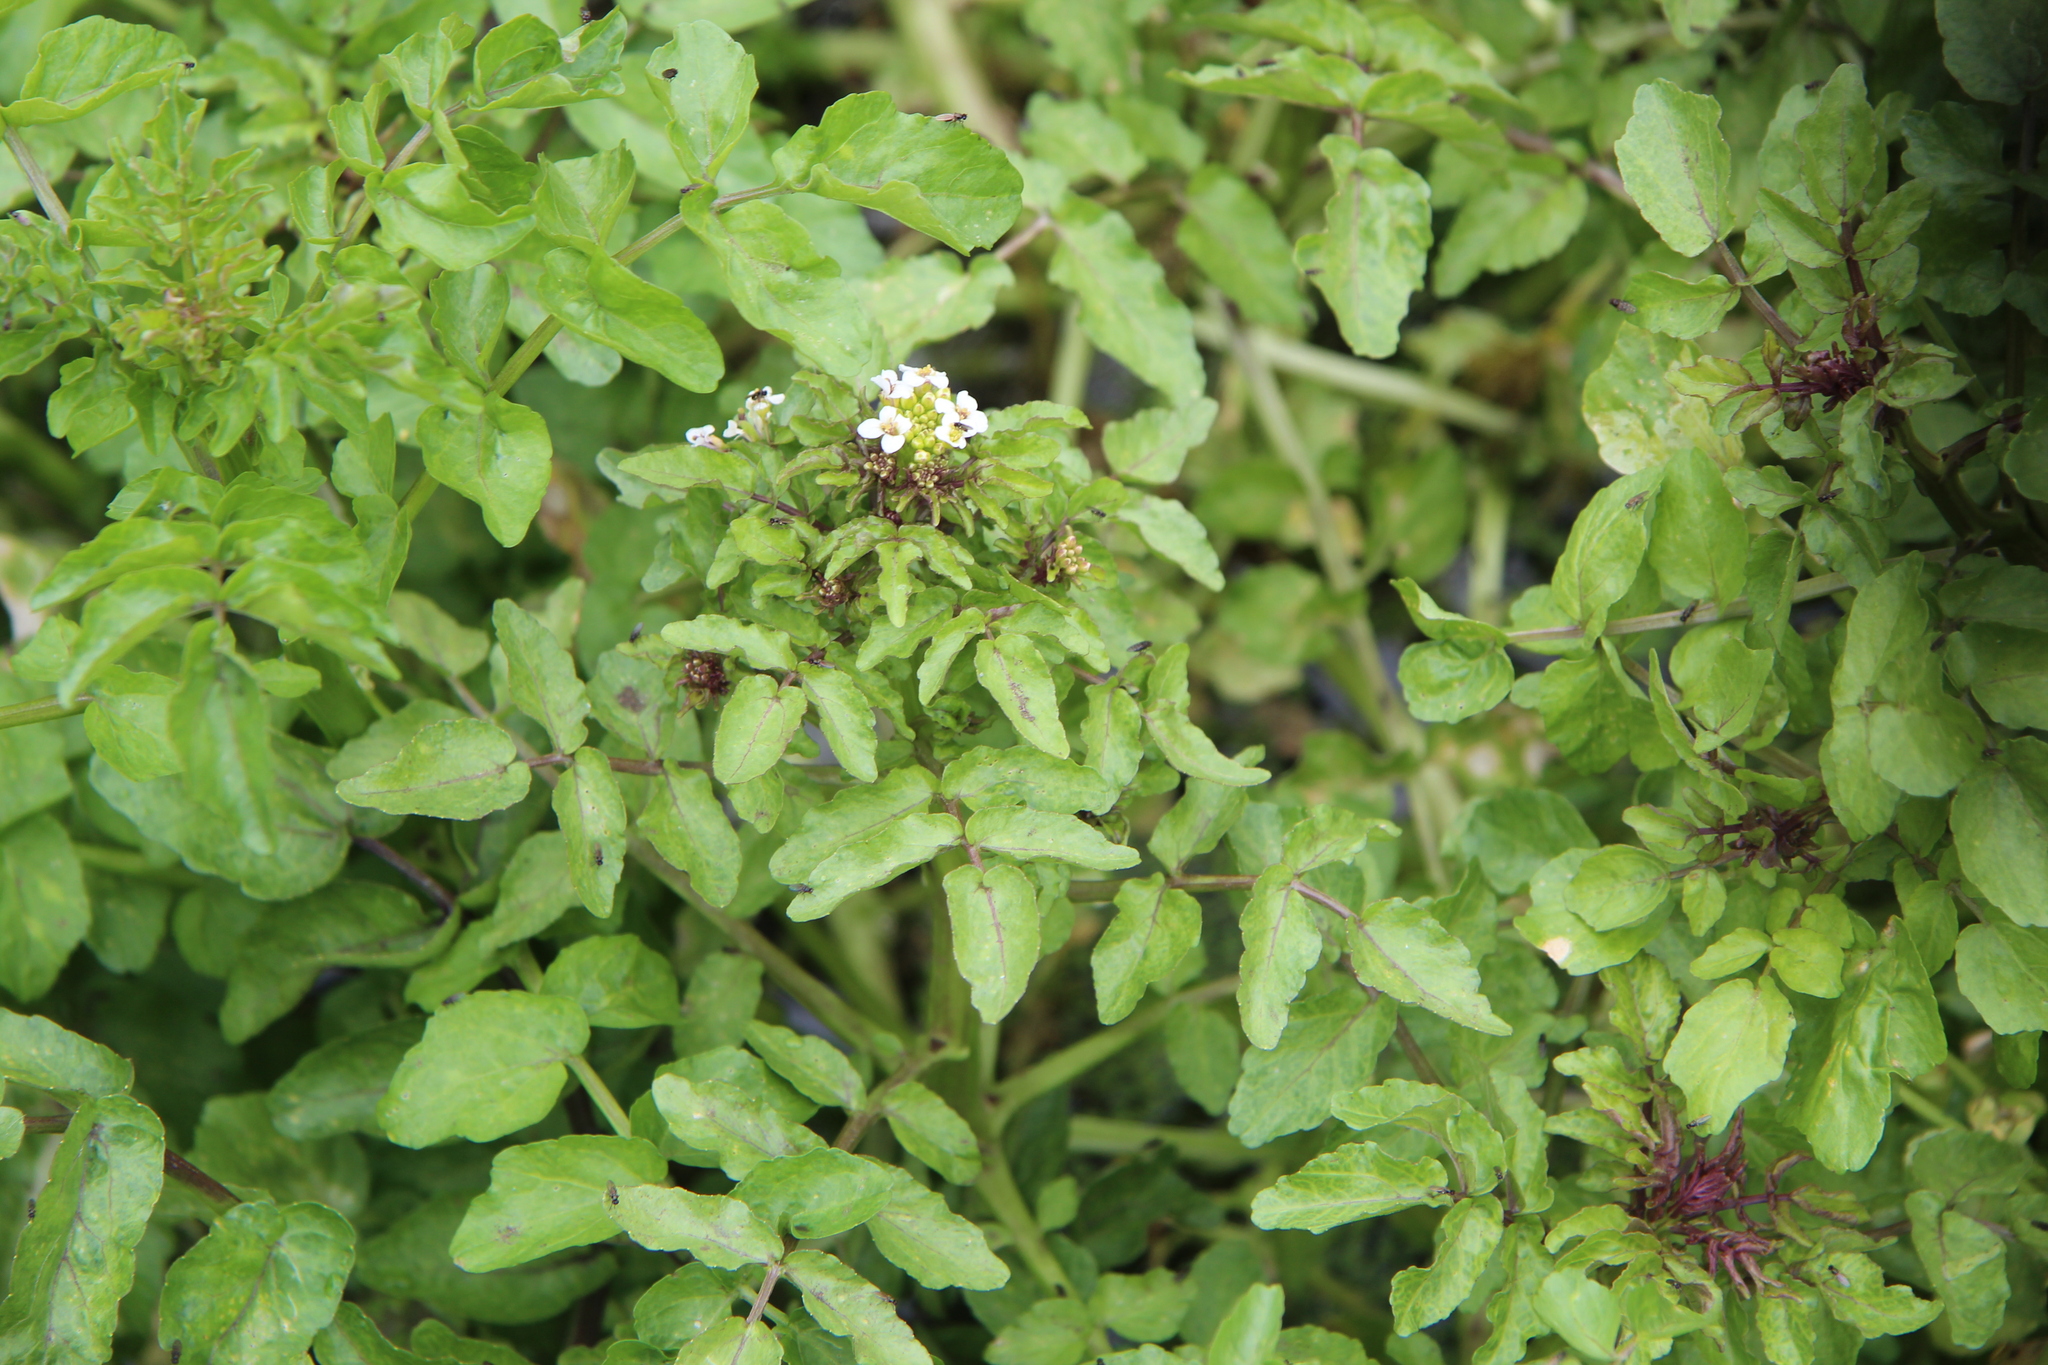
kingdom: Plantae
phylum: Tracheophyta
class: Magnoliopsida
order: Brassicales
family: Brassicaceae
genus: Nasturtium
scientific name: Nasturtium officinale
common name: Watercress
